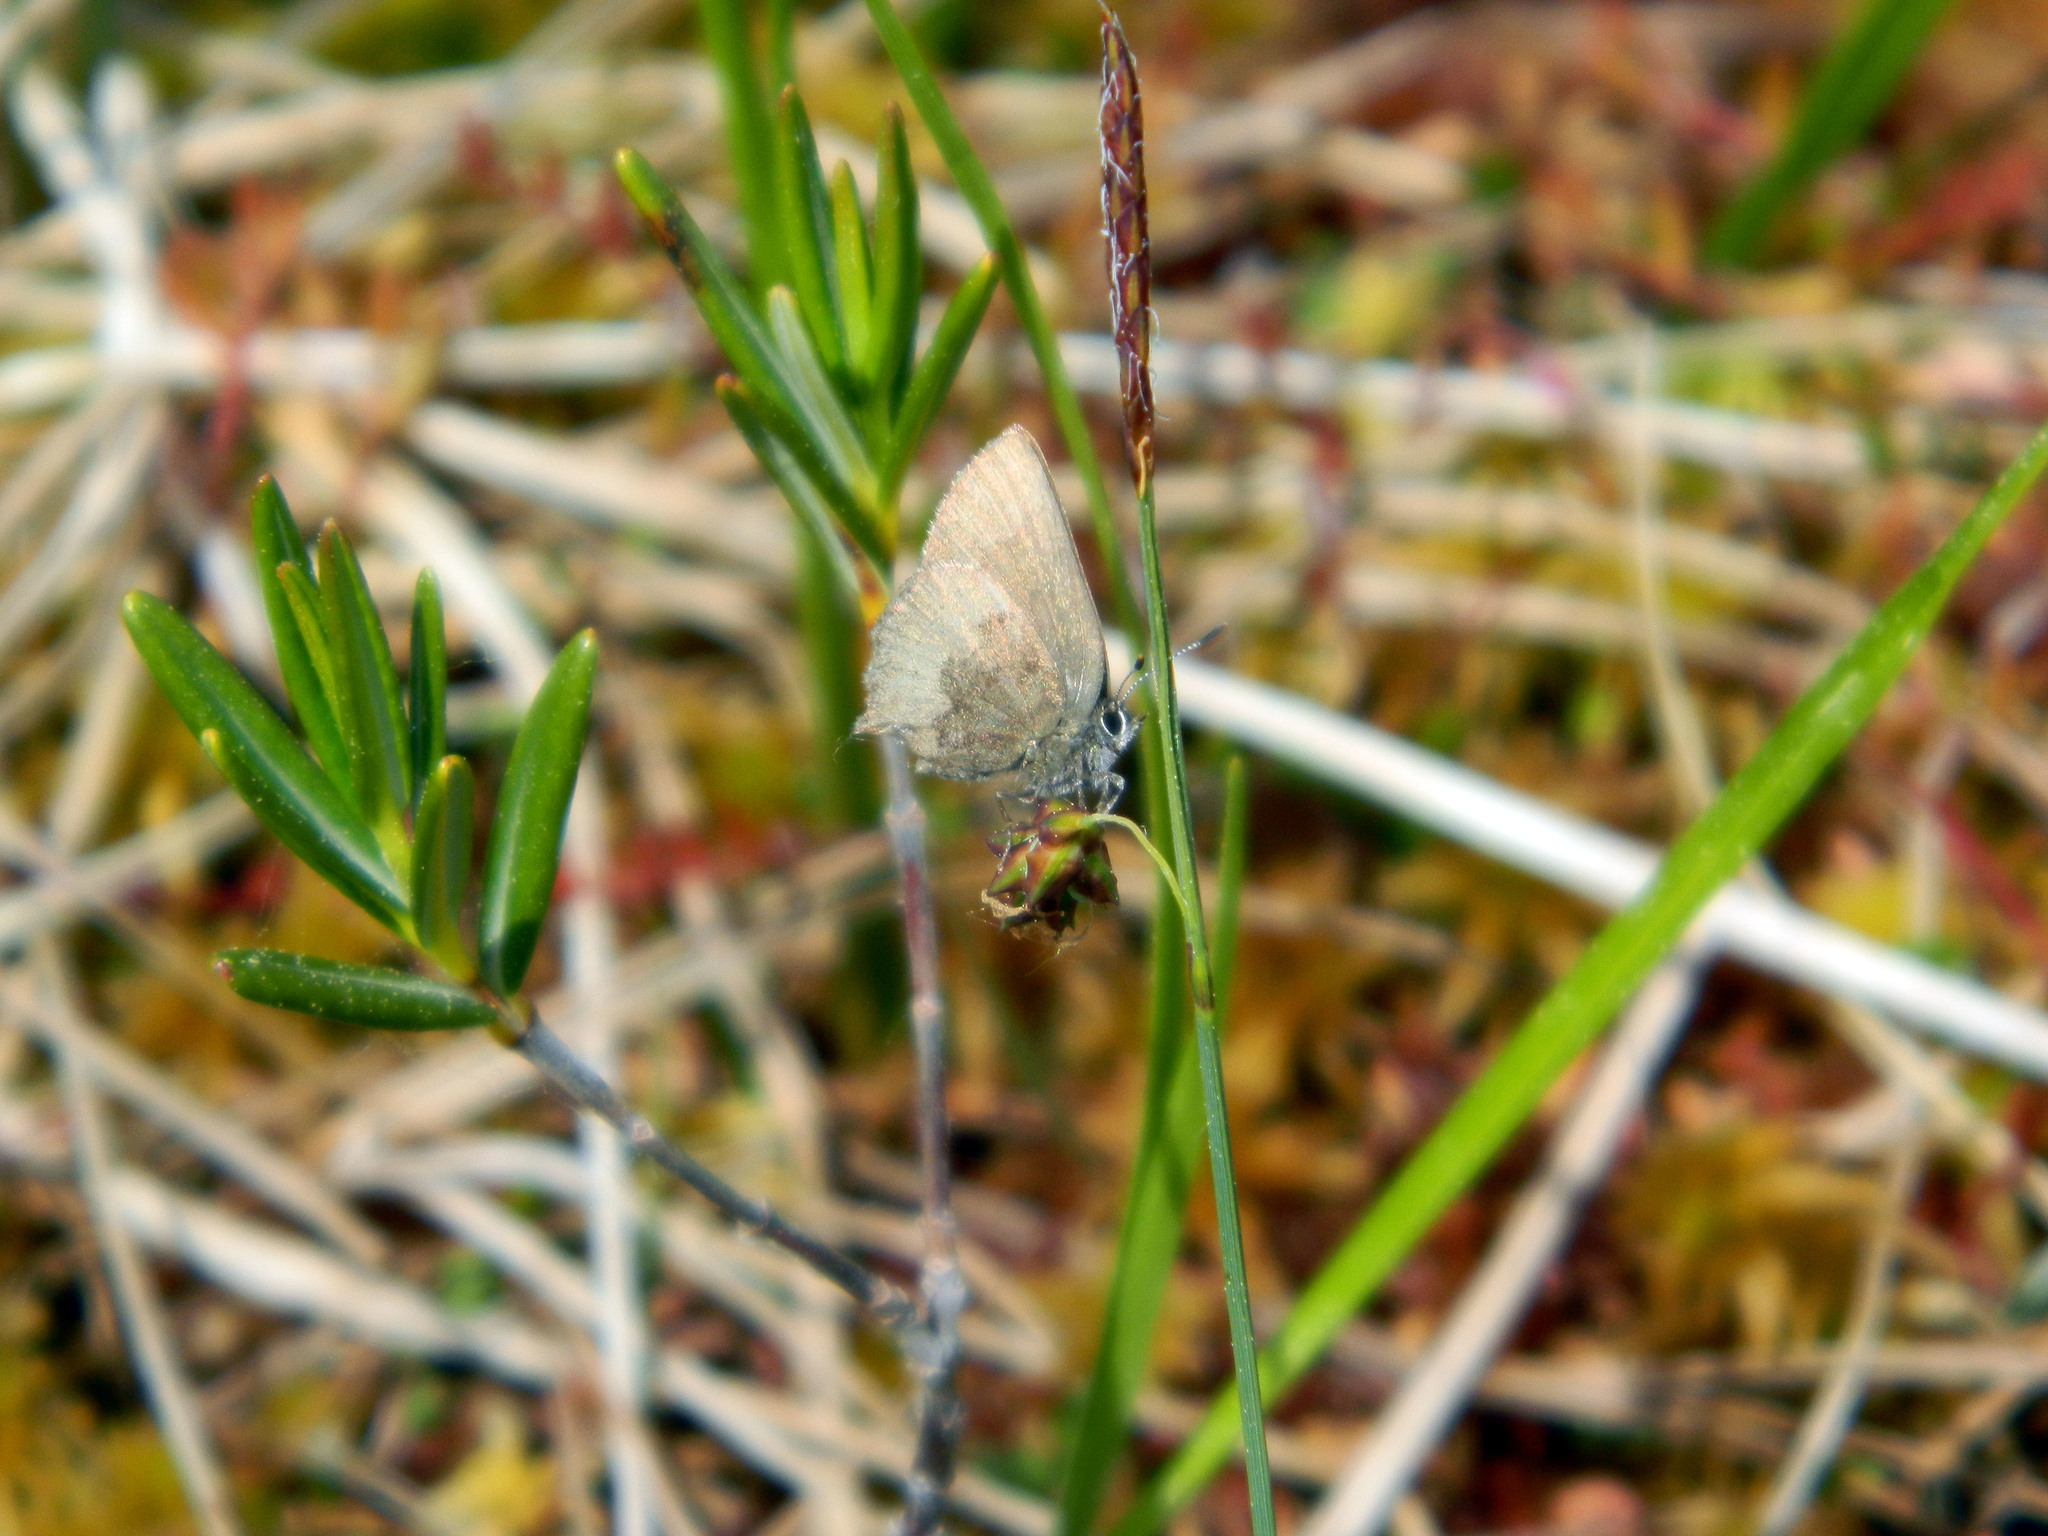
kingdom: Animalia
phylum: Arthropoda
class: Insecta
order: Lepidoptera
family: Lycaenidae
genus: Incisalia
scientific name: Incisalia irioides
